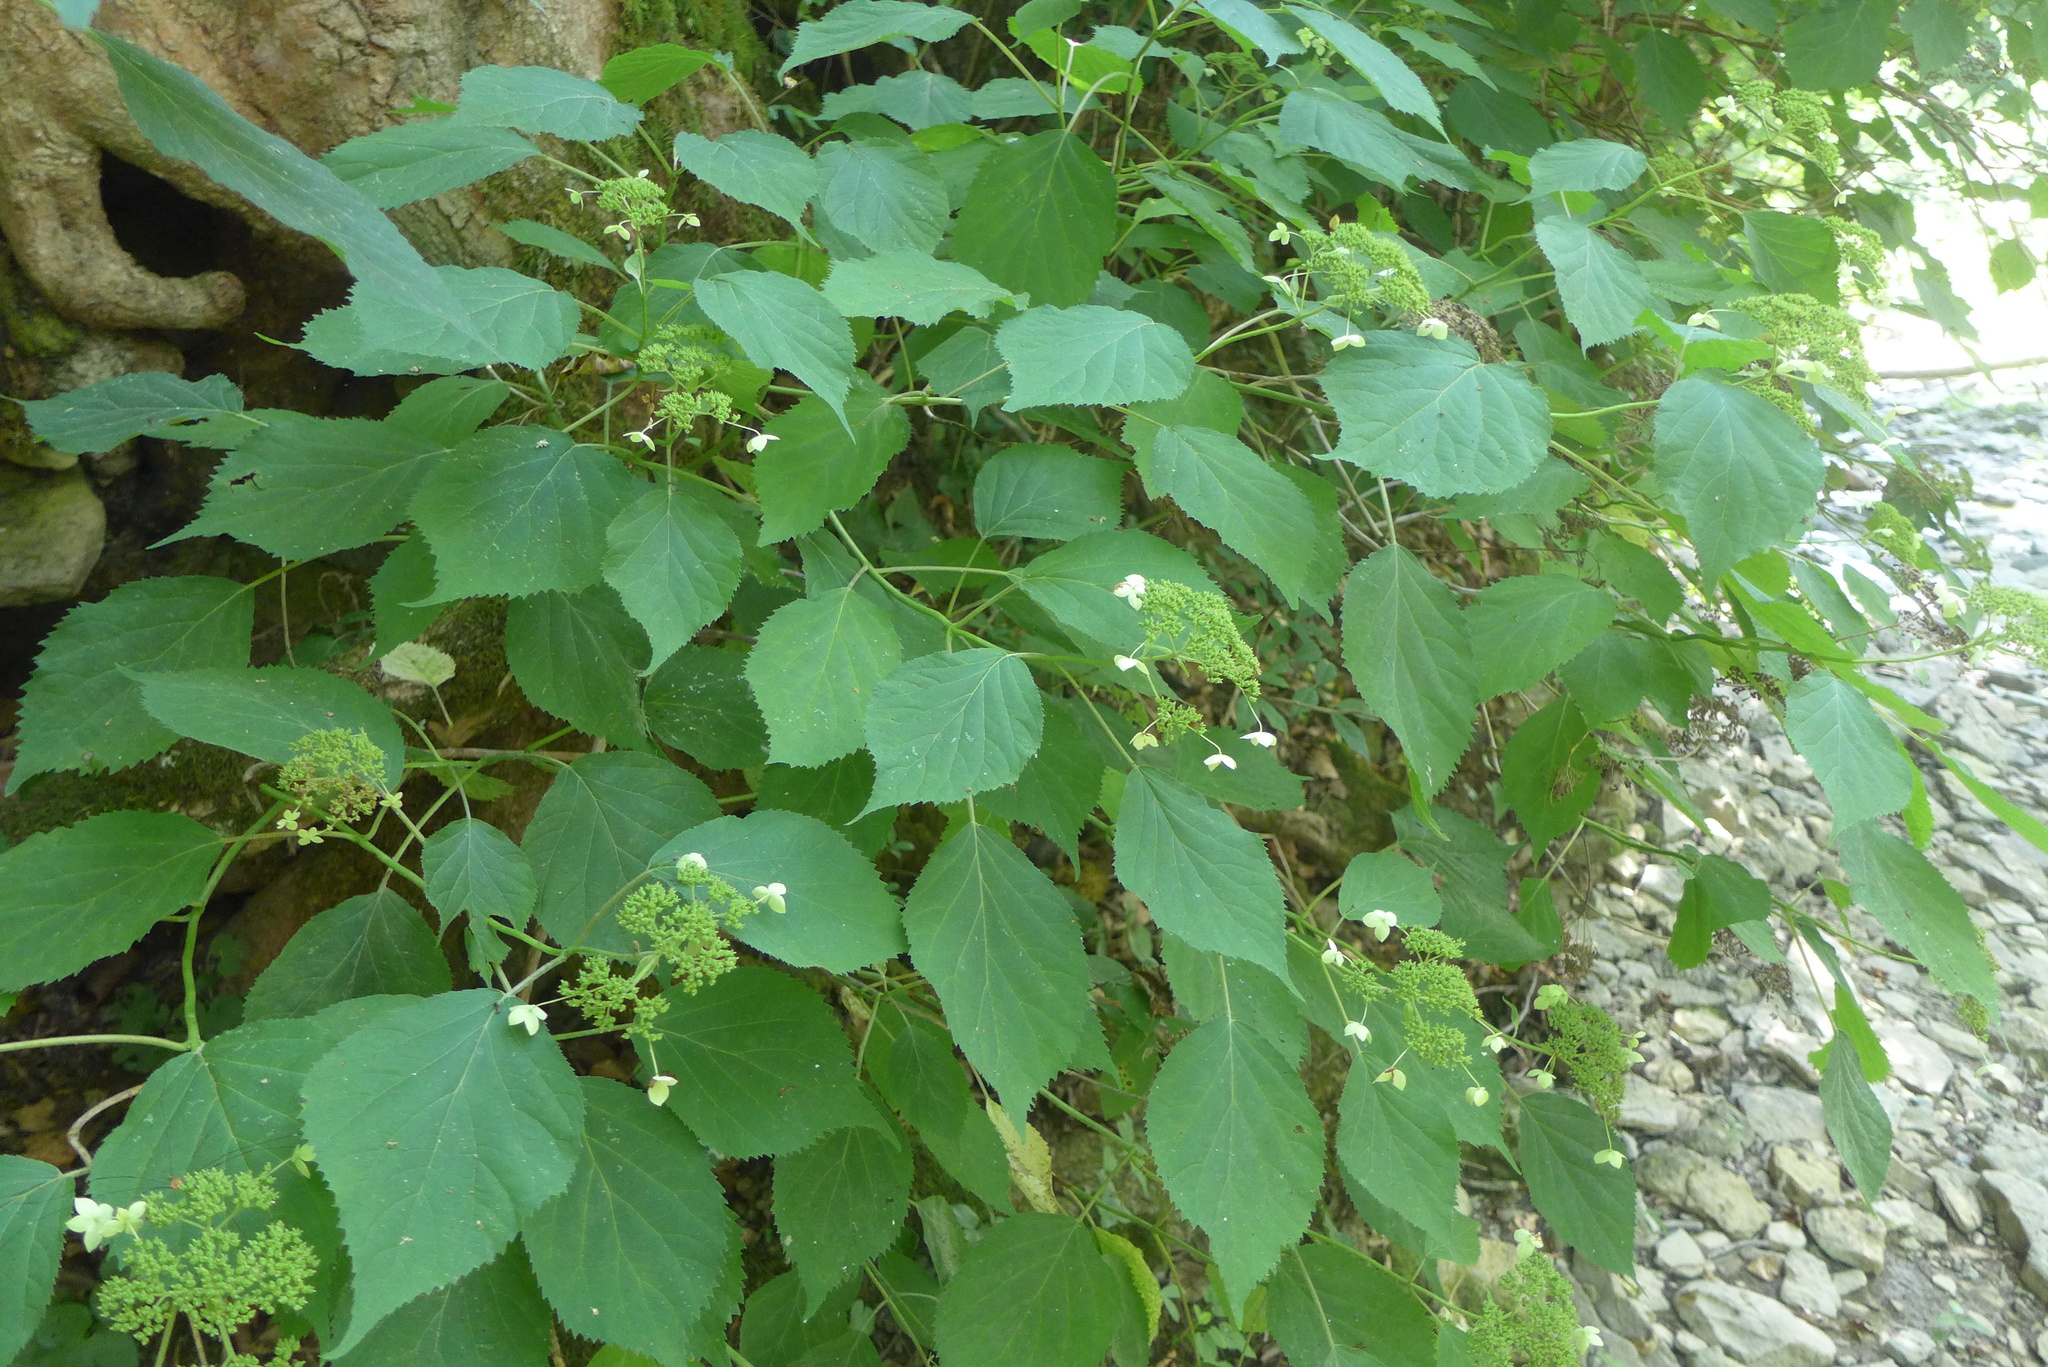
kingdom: Plantae
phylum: Tracheophyta
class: Magnoliopsida
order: Cornales
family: Hydrangeaceae
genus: Hydrangea
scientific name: Hydrangea arborescens
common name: Sevenbark
